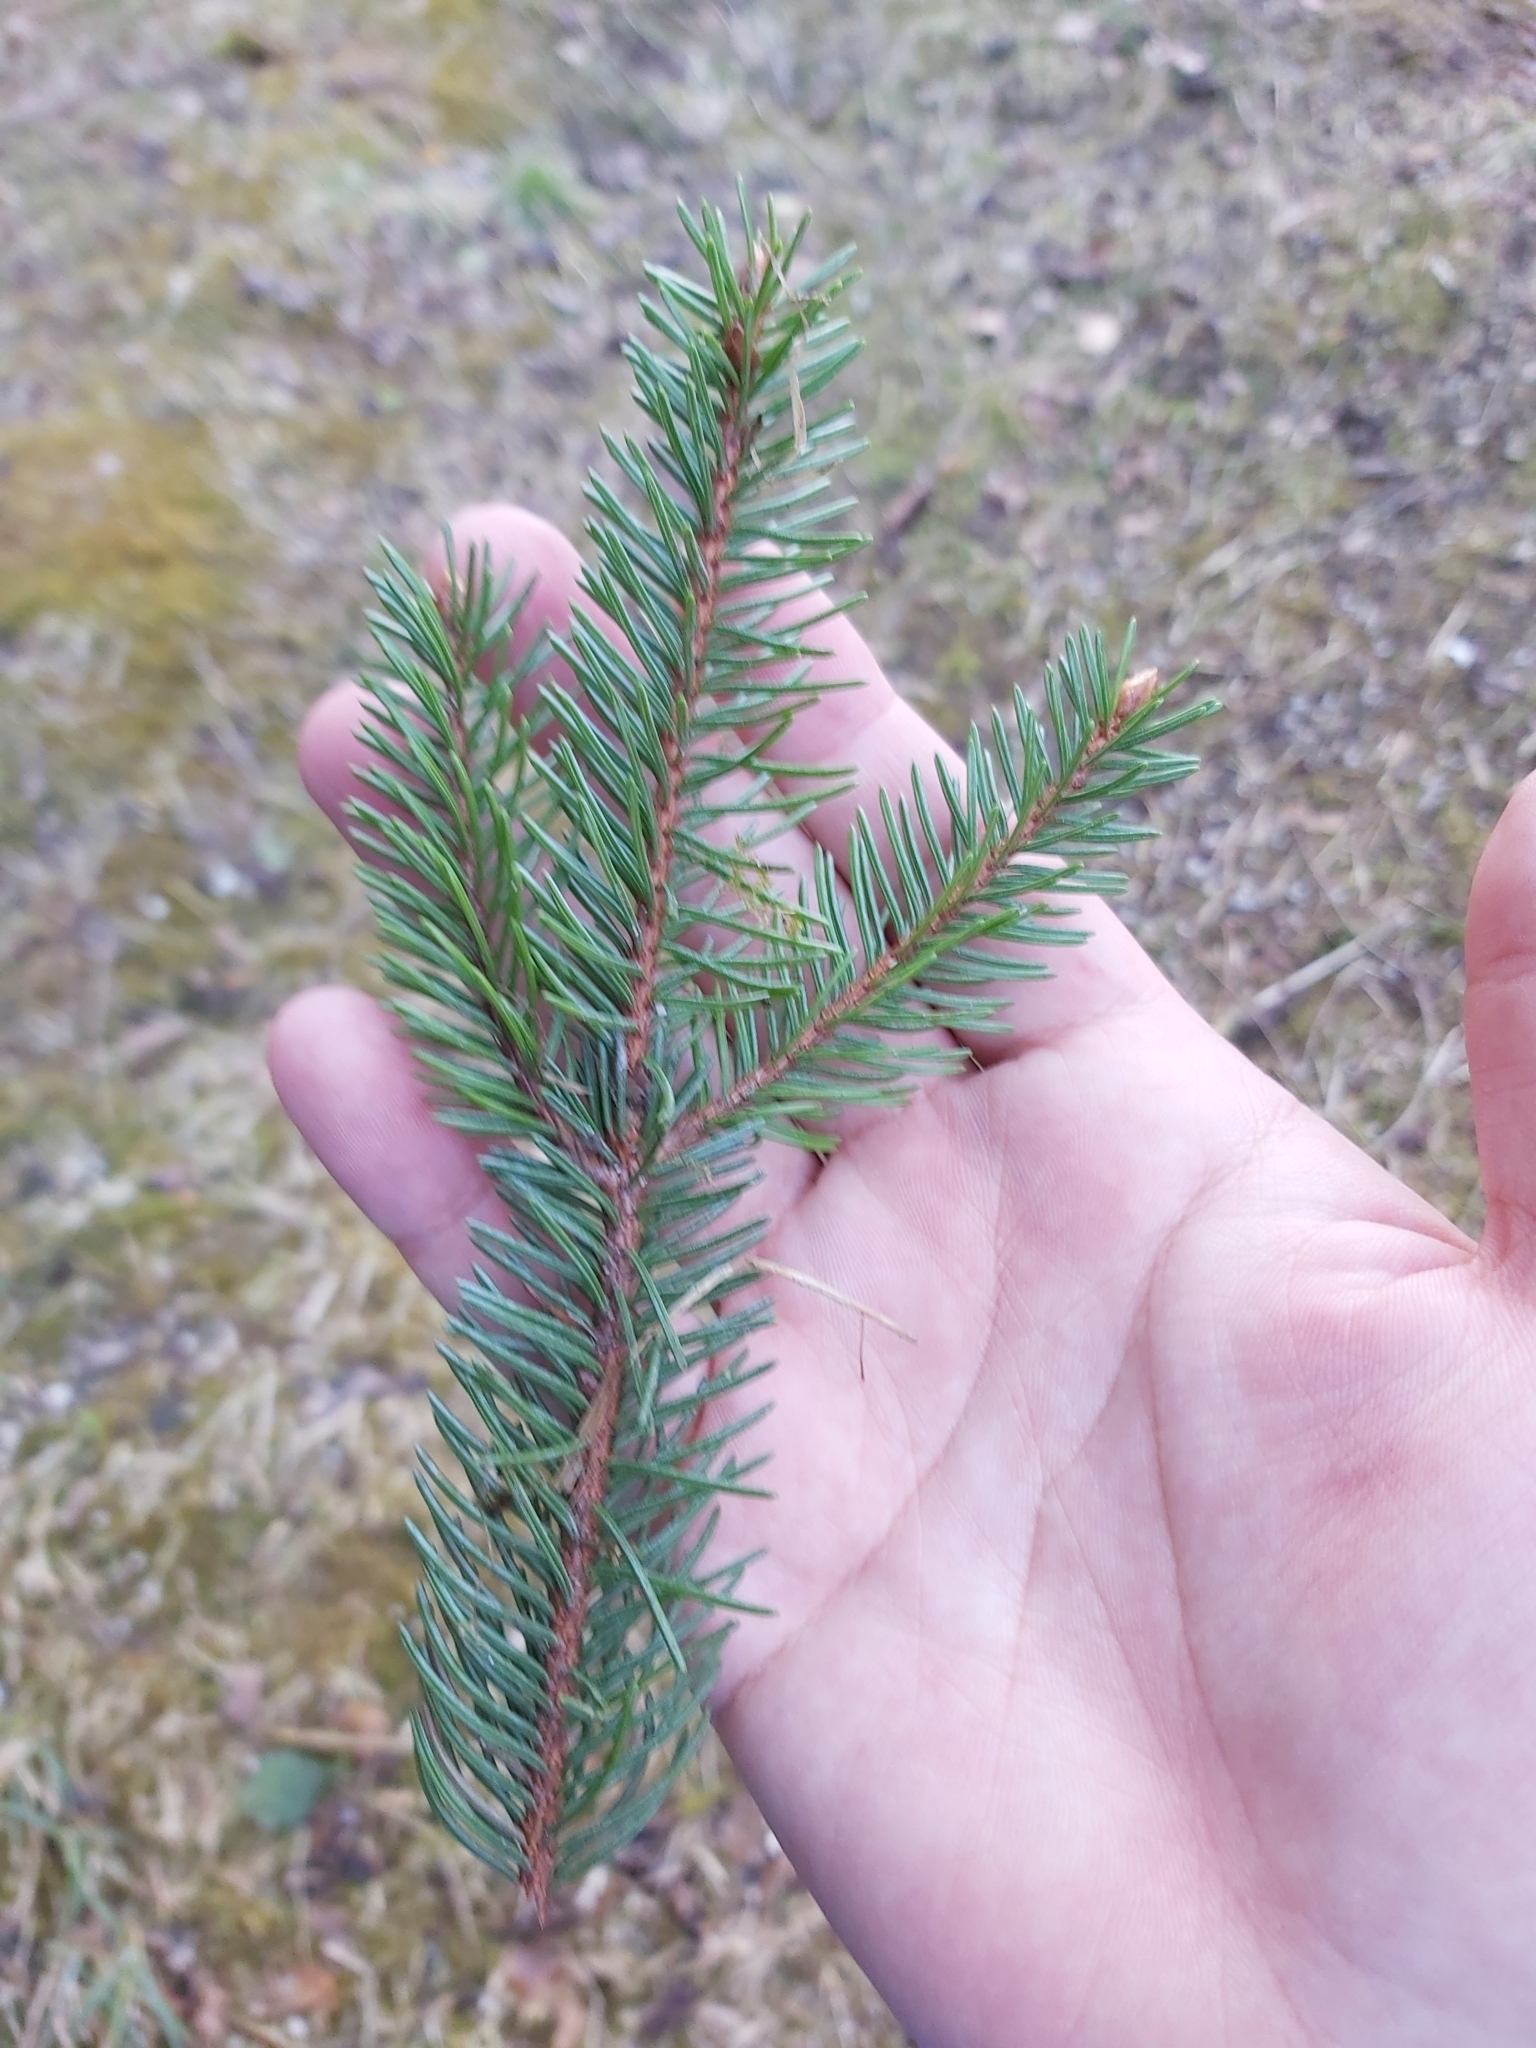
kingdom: Plantae
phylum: Tracheophyta
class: Pinopsida
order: Pinales
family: Pinaceae
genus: Picea
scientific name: Picea abies
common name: Norway spruce
